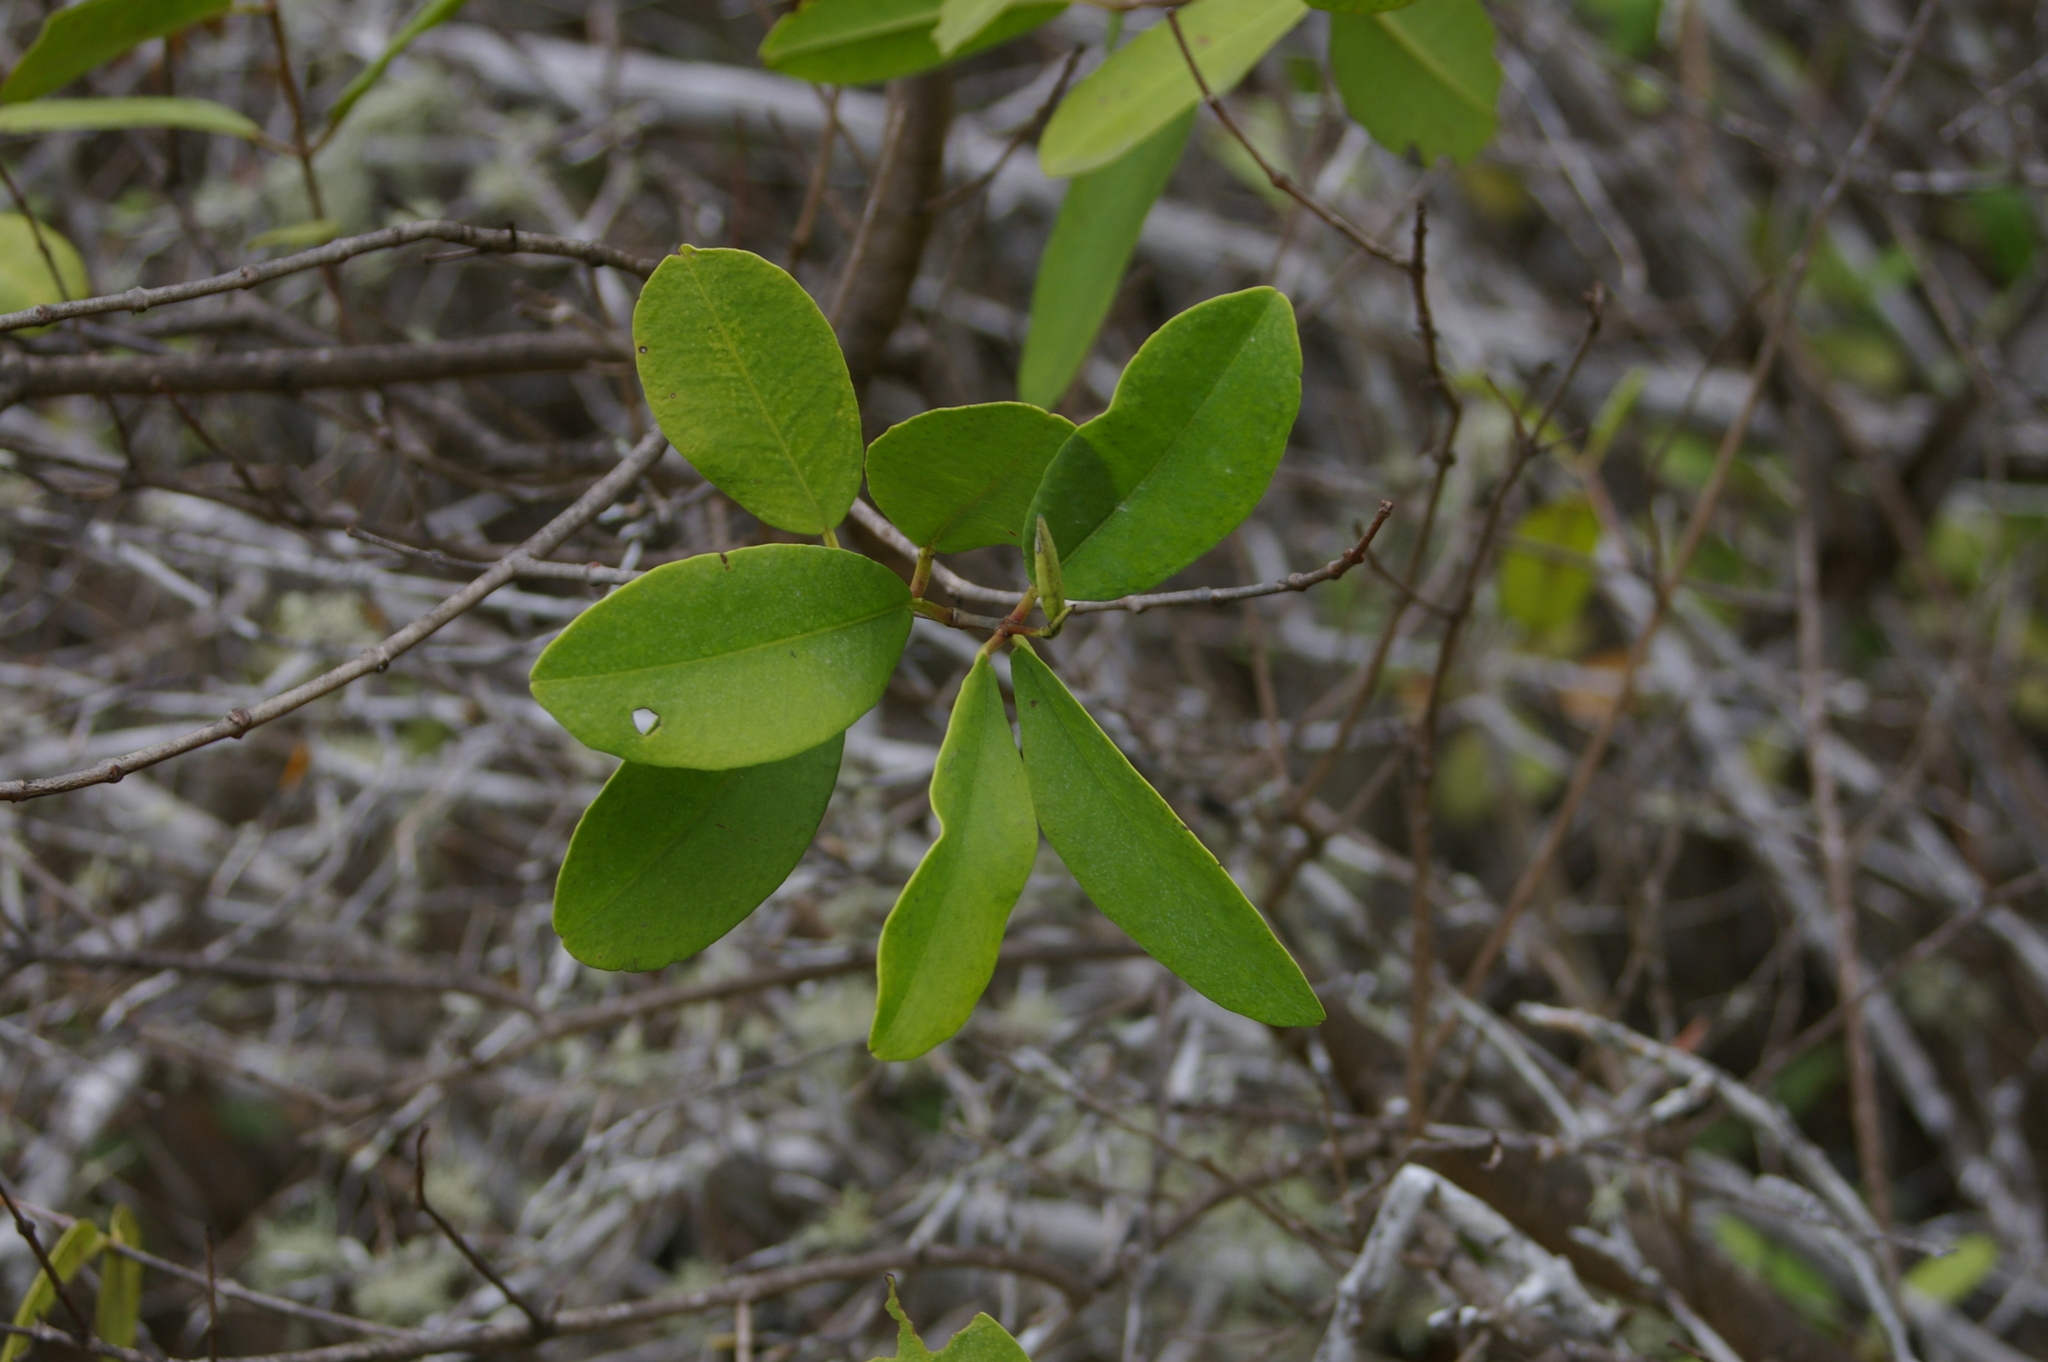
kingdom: Plantae
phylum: Tracheophyta
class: Magnoliopsida
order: Myrtales
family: Combretaceae
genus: Laguncularia
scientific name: Laguncularia racemosa
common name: White mangrove
